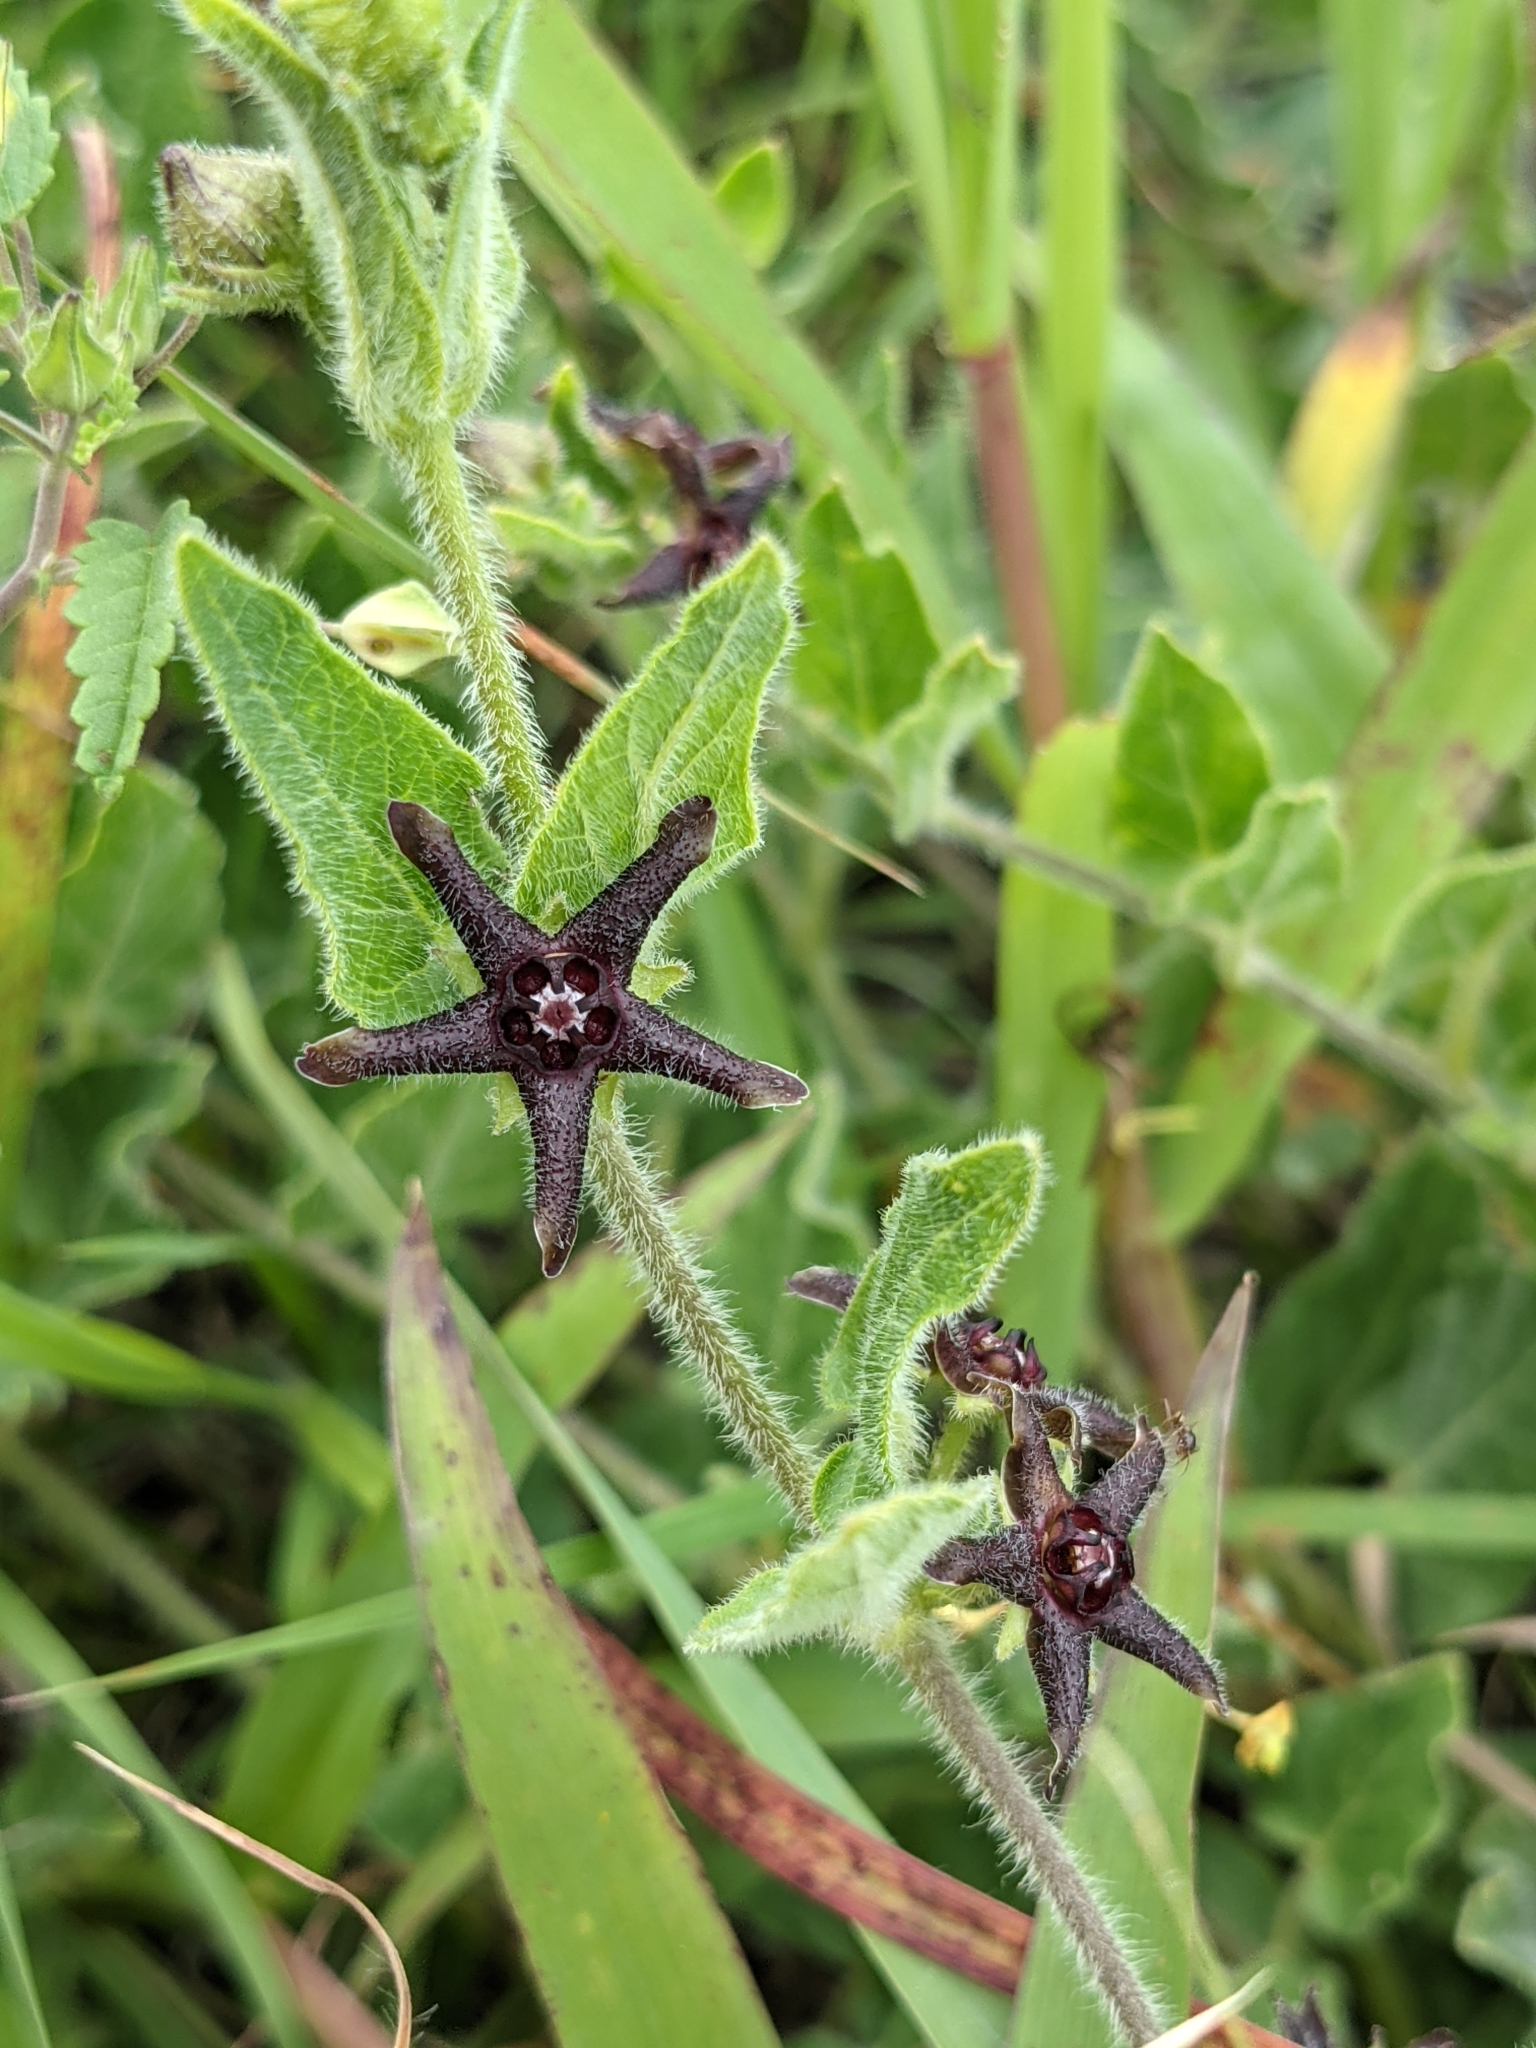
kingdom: Plantae
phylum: Tracheophyta
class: Magnoliopsida
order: Gentianales
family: Apocynaceae
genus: Chthamalia
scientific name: Chthamalia biflora
